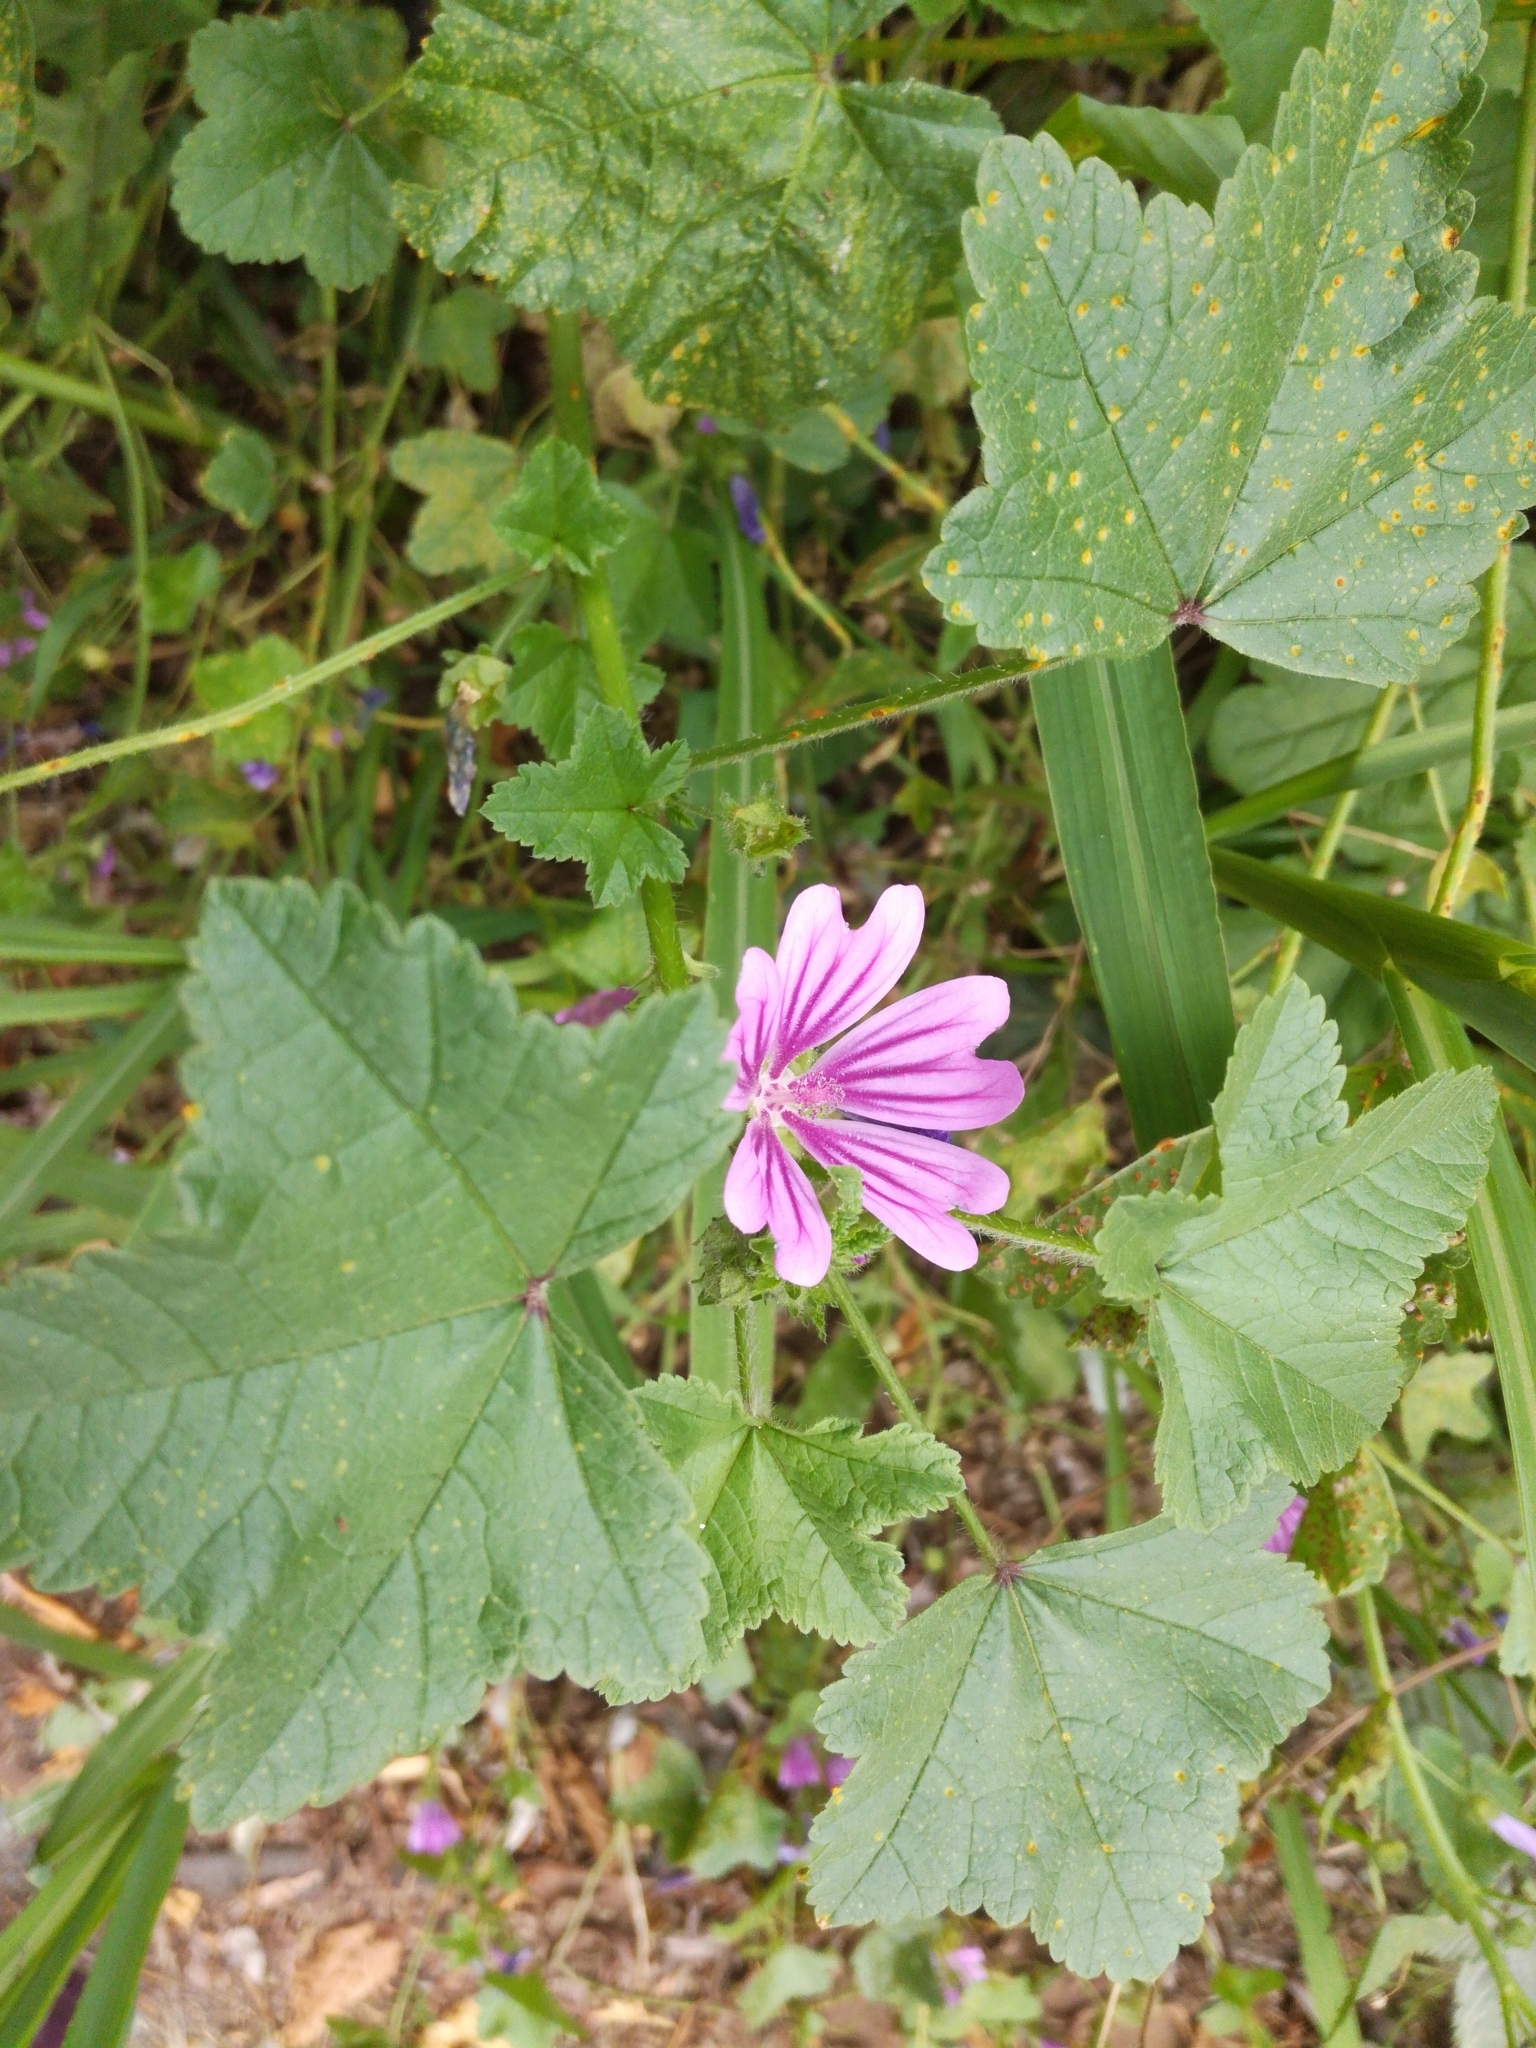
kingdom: Plantae
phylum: Tracheophyta
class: Magnoliopsida
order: Malvales
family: Malvaceae
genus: Malva
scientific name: Malva sylvestris
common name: Common mallow
